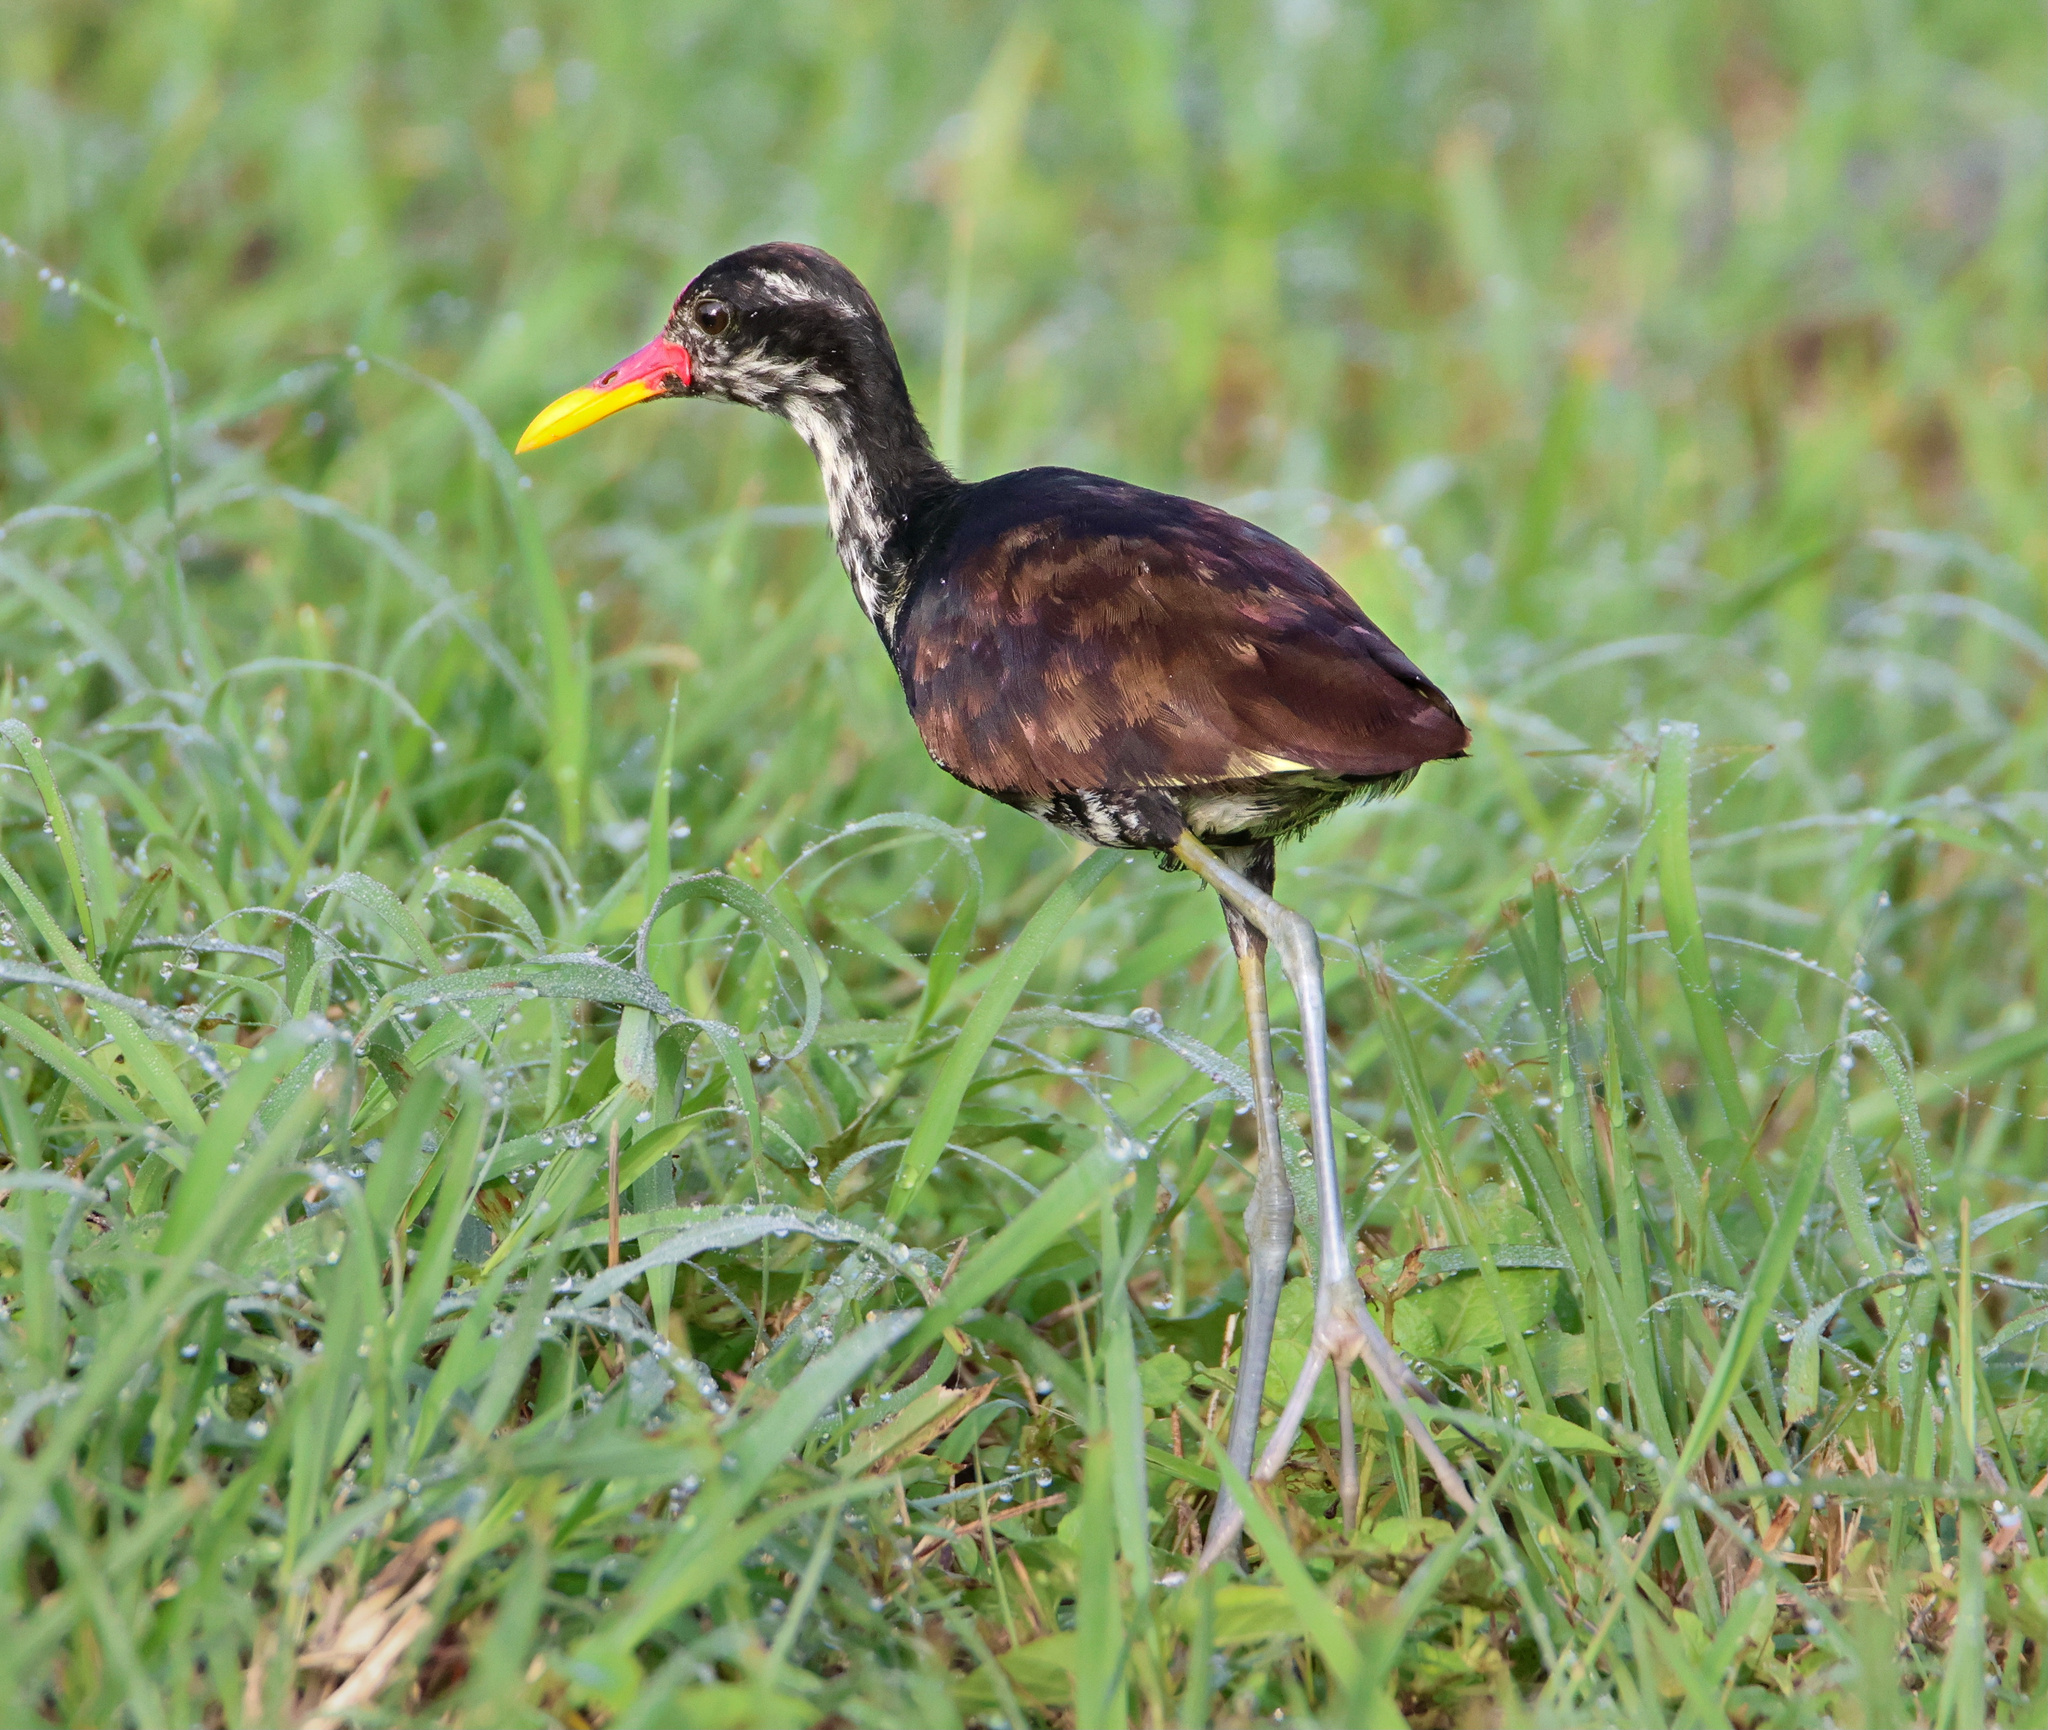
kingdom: Animalia
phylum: Chordata
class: Aves
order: Charadriiformes
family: Jacanidae
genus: Jacana
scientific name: Jacana jacana
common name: Wattled jacana
